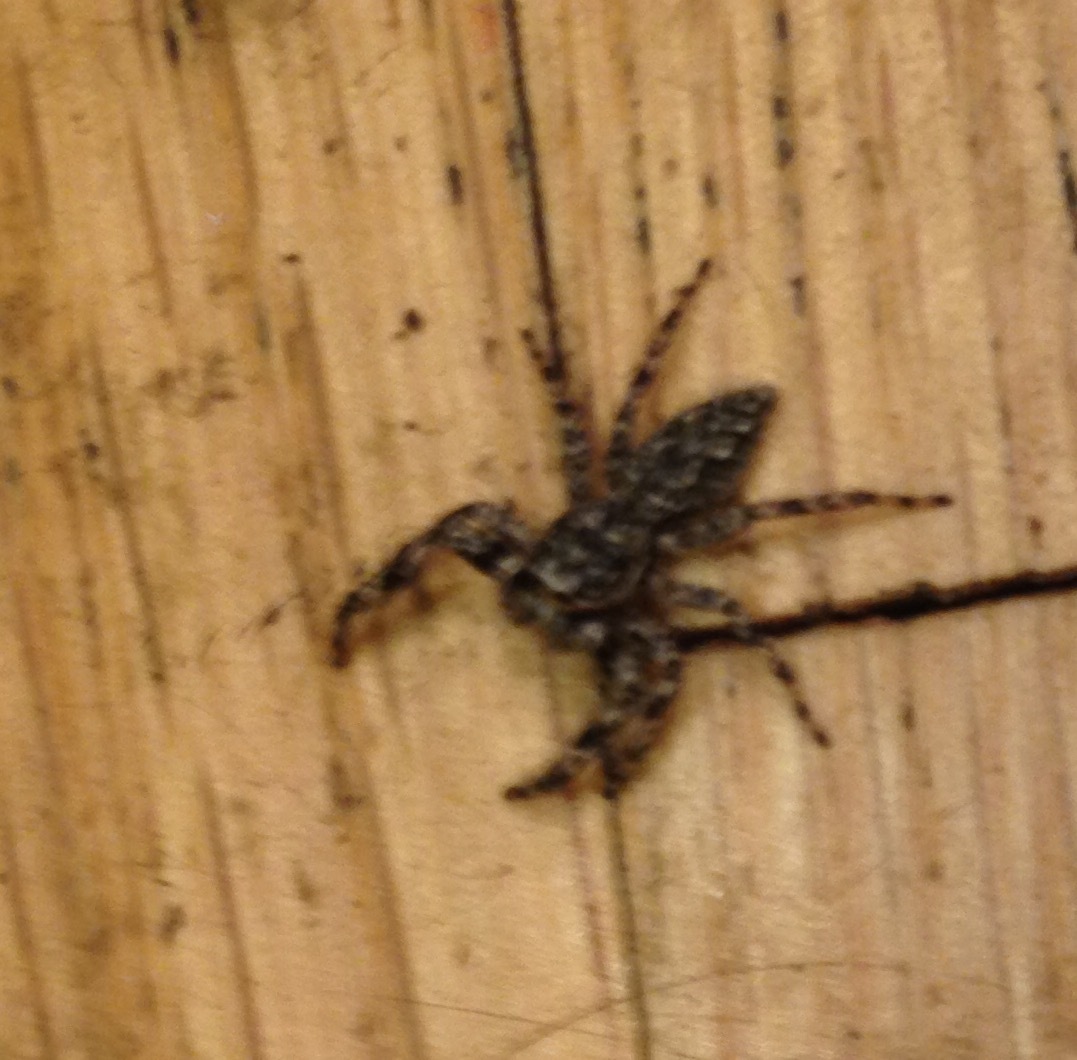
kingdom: Animalia
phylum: Arthropoda
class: Arachnida
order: Araneae
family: Salticidae
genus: Platycryptus
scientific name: Platycryptus undatus
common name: Tan jumping spider
